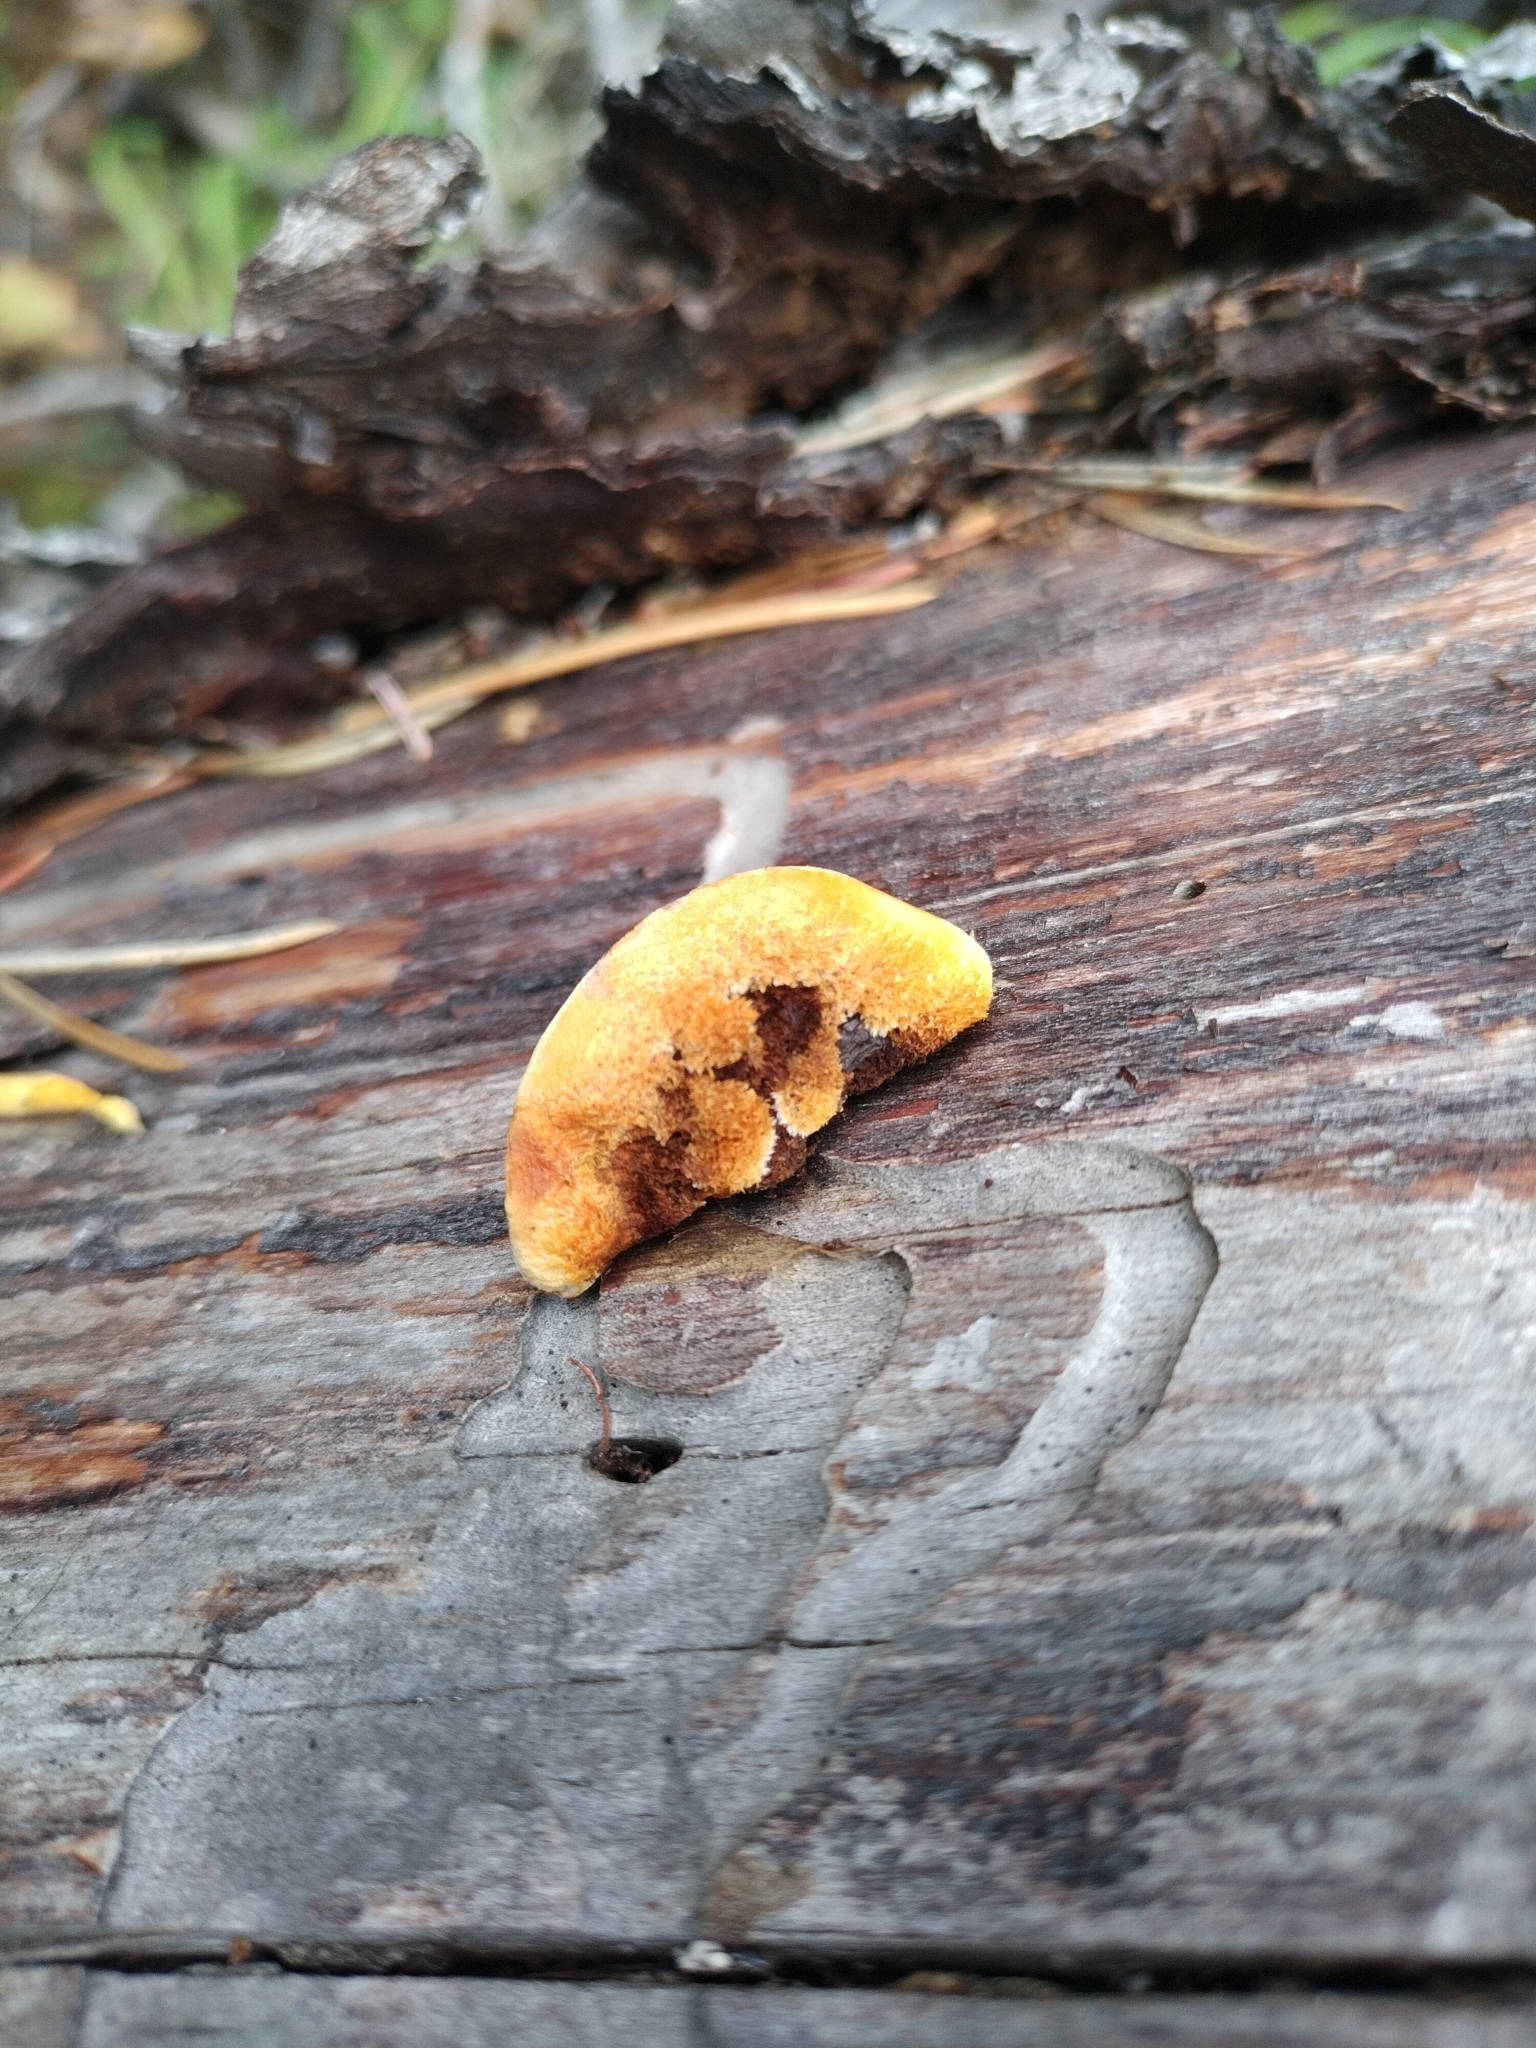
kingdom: Fungi
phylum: Basidiomycota
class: Agaricomycetes
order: Gloeophyllales
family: Gloeophyllaceae
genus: Gloeophyllum
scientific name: Gloeophyllum sepiarium
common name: Conifer mazegill
